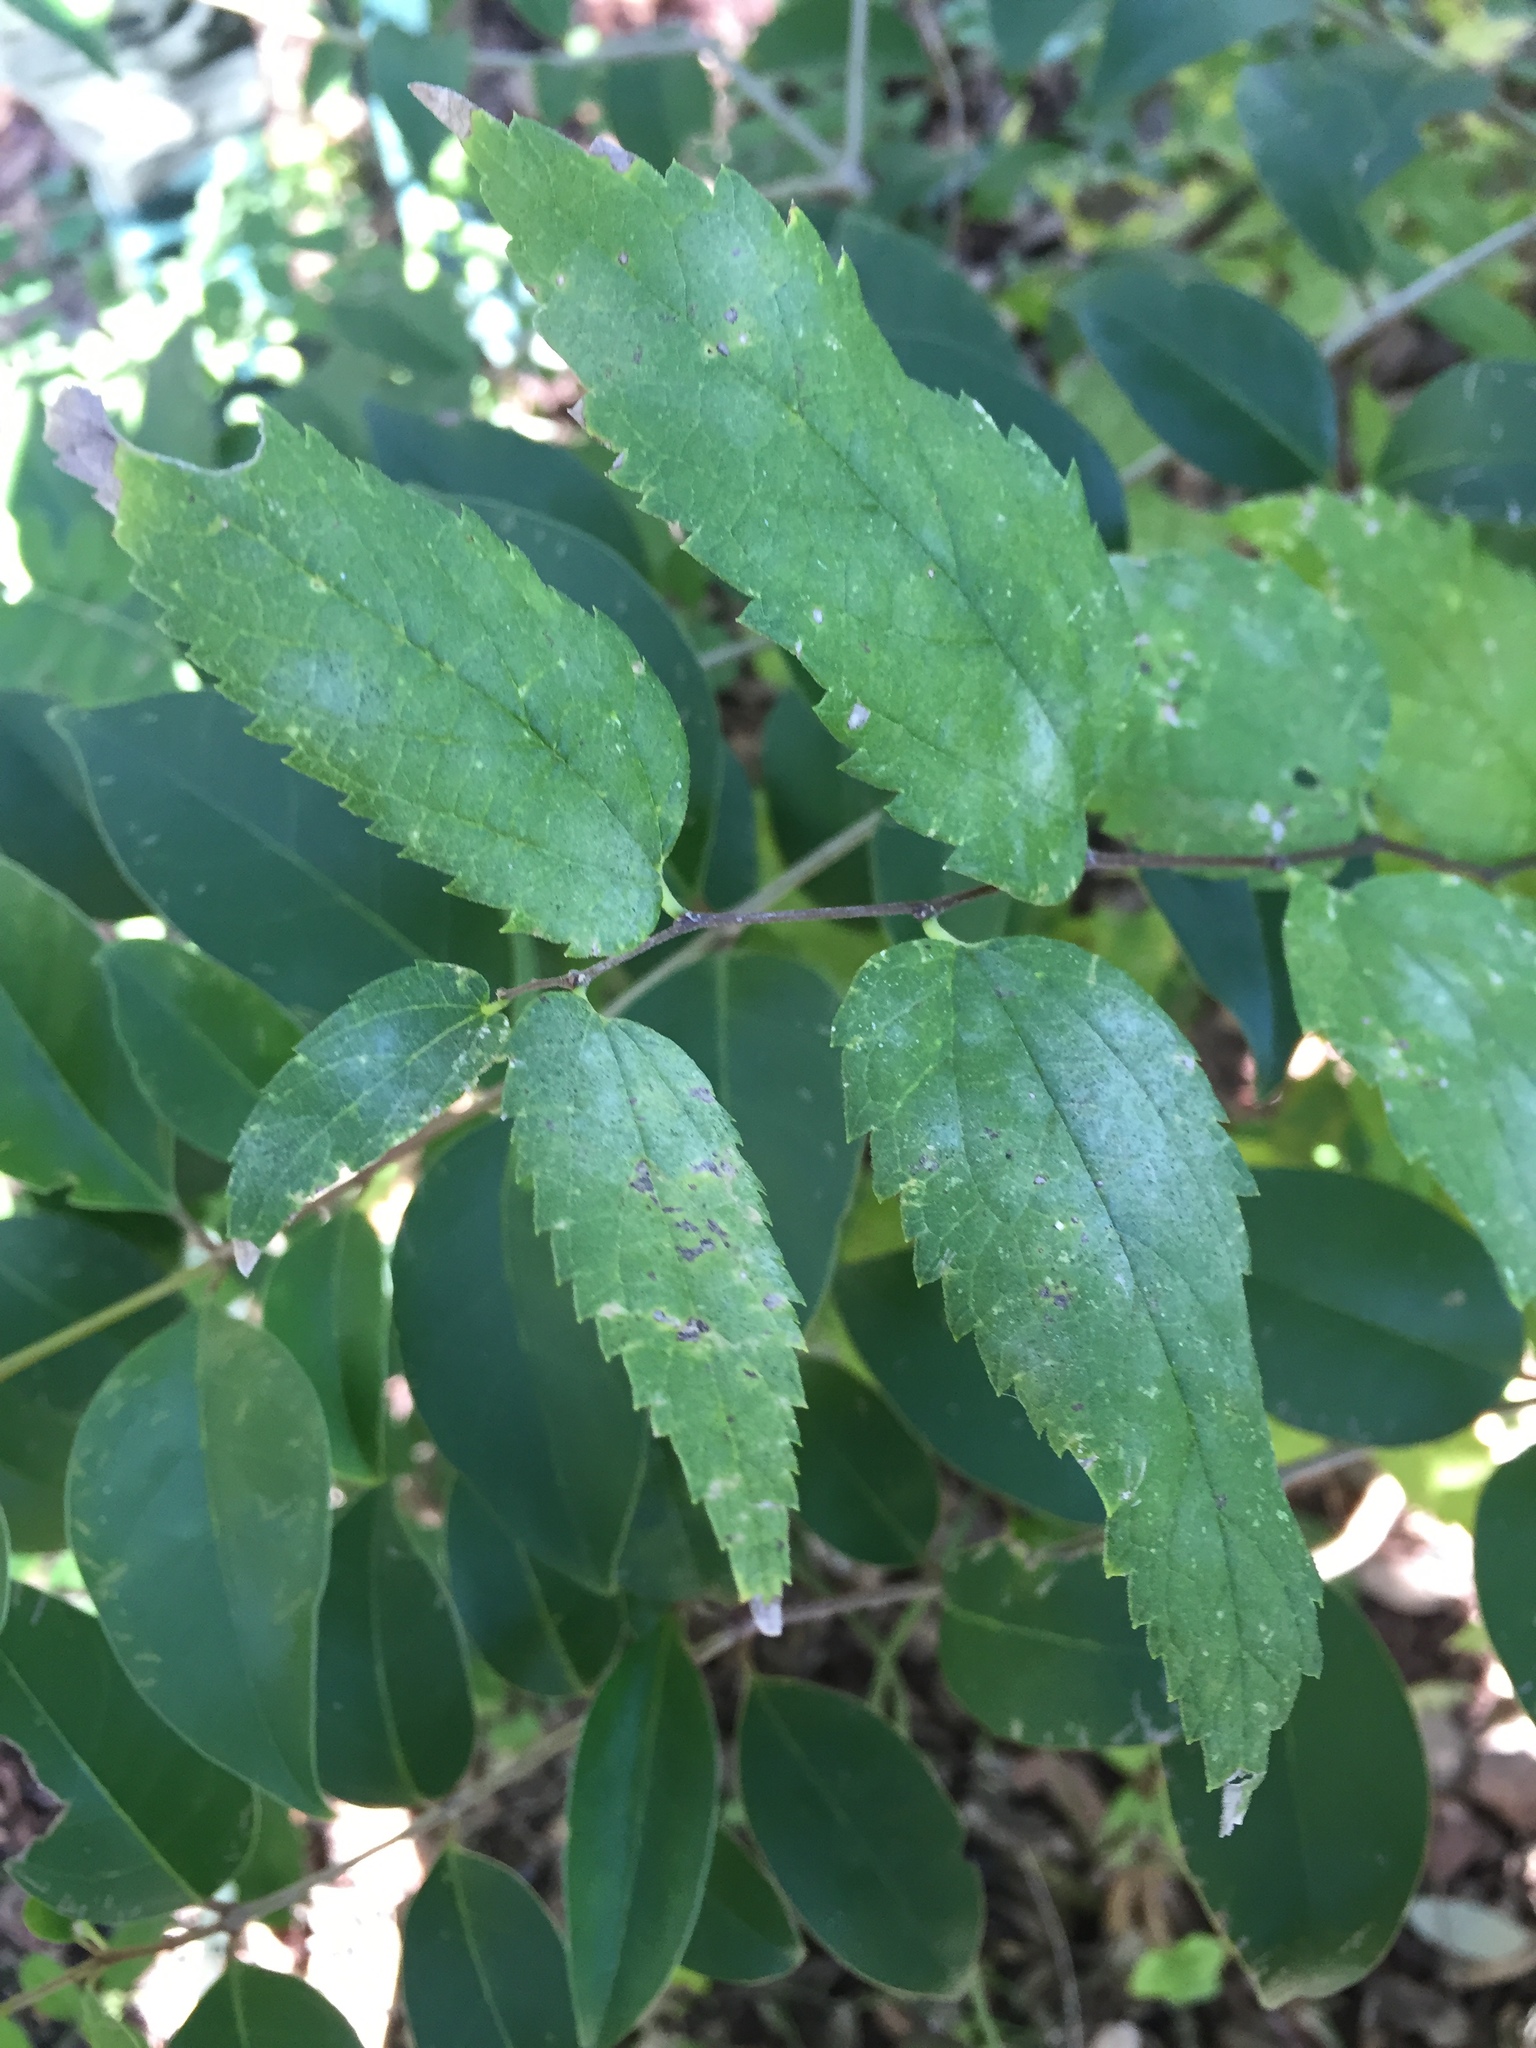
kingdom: Plantae
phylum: Tracheophyta
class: Magnoliopsida
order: Rosales
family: Cannabaceae
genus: Celtis
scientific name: Celtis laevigata
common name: Sugarberry
